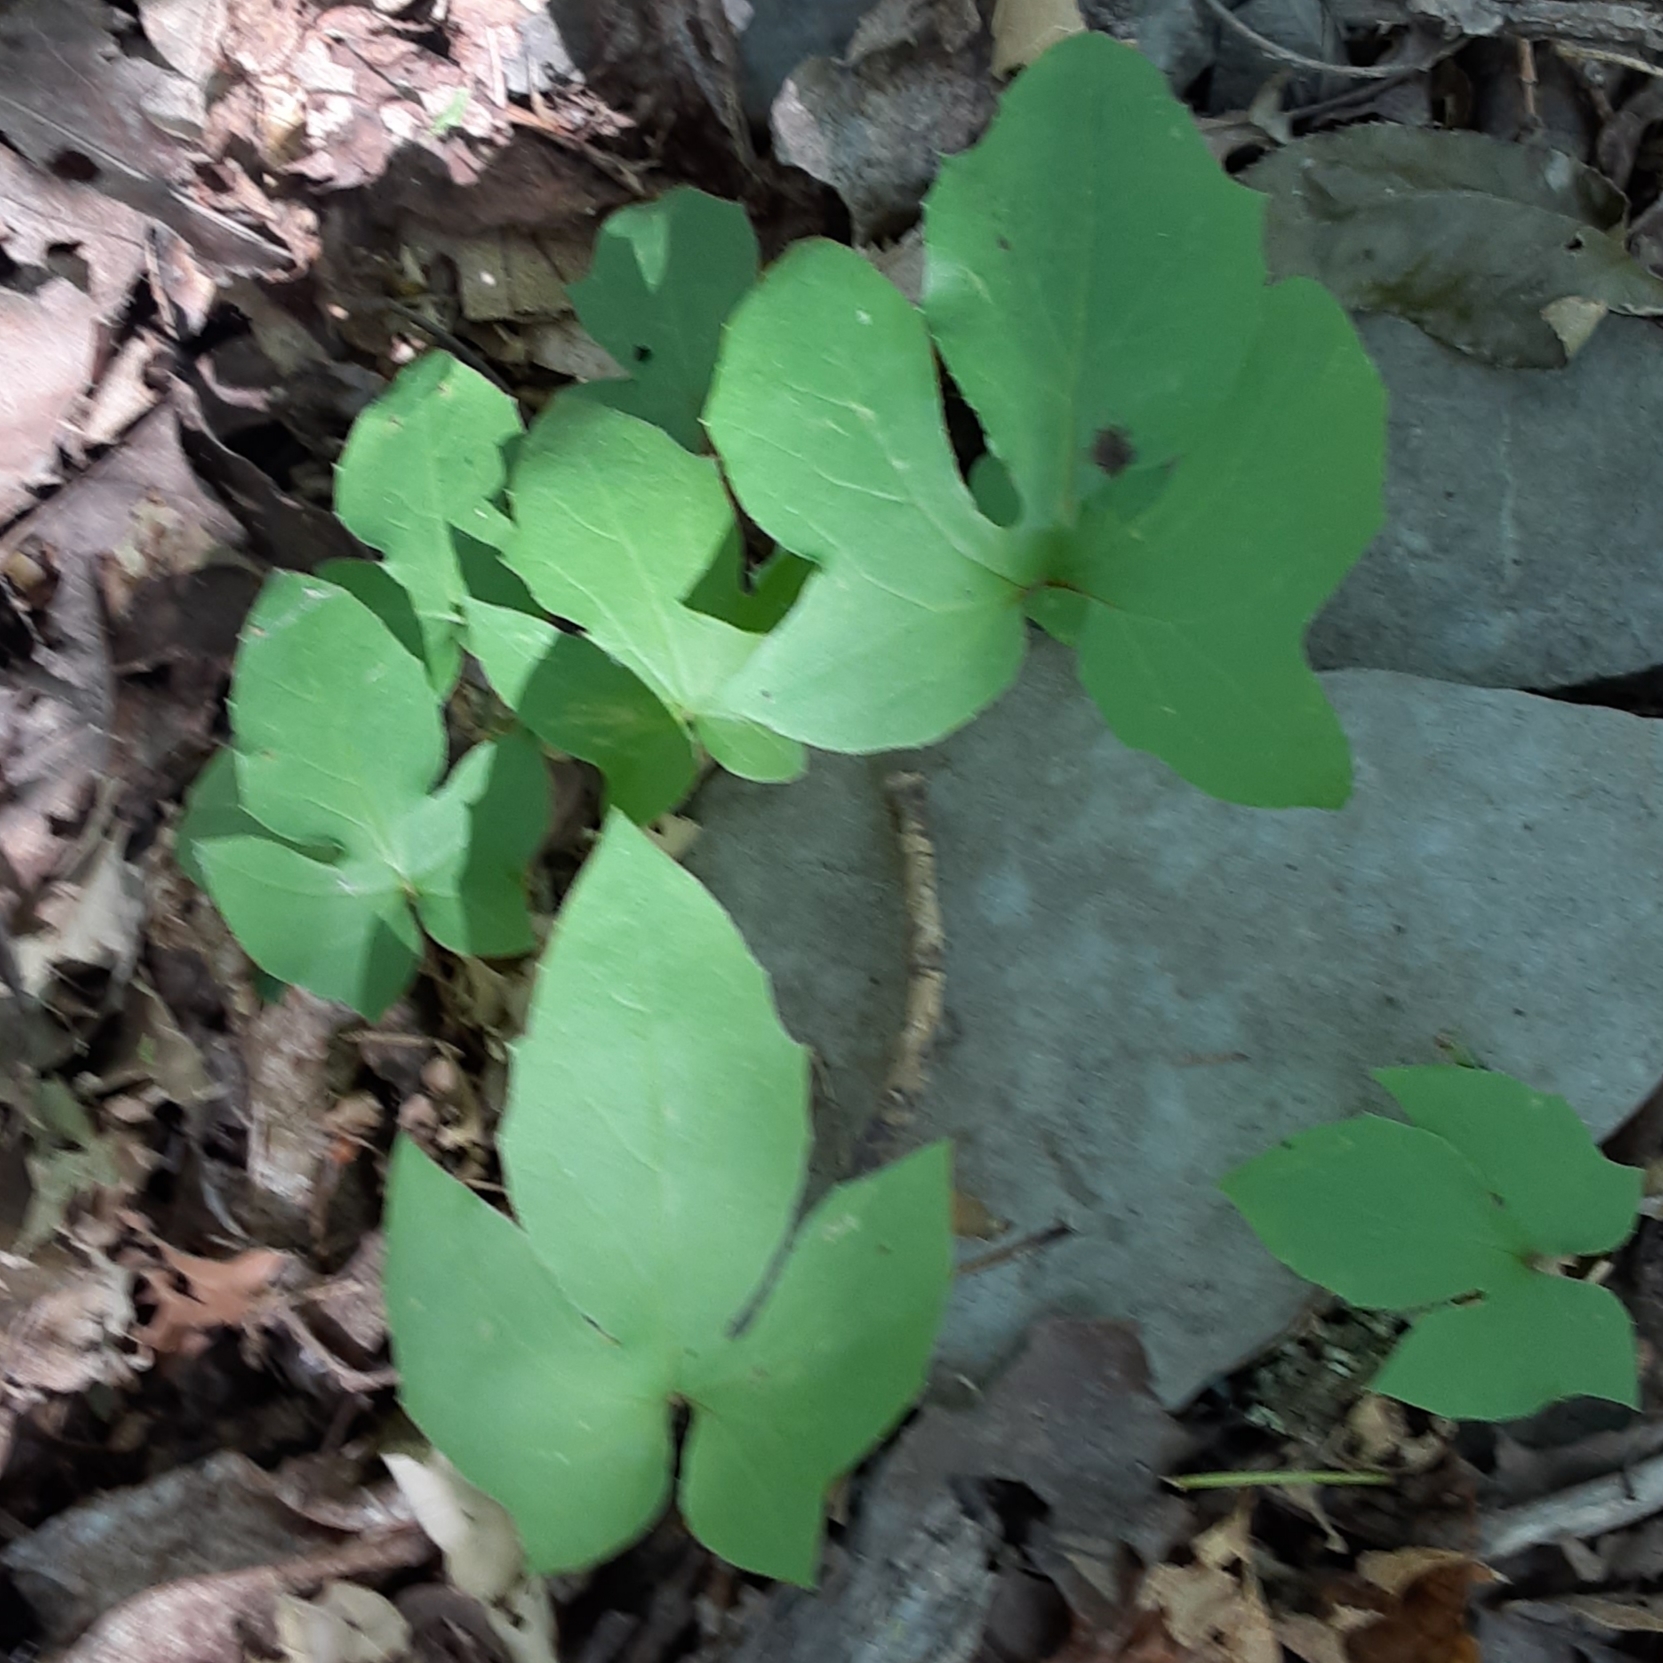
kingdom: Plantae
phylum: Tracheophyta
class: Magnoliopsida
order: Asterales
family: Asteraceae
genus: Nabalus
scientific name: Nabalus
